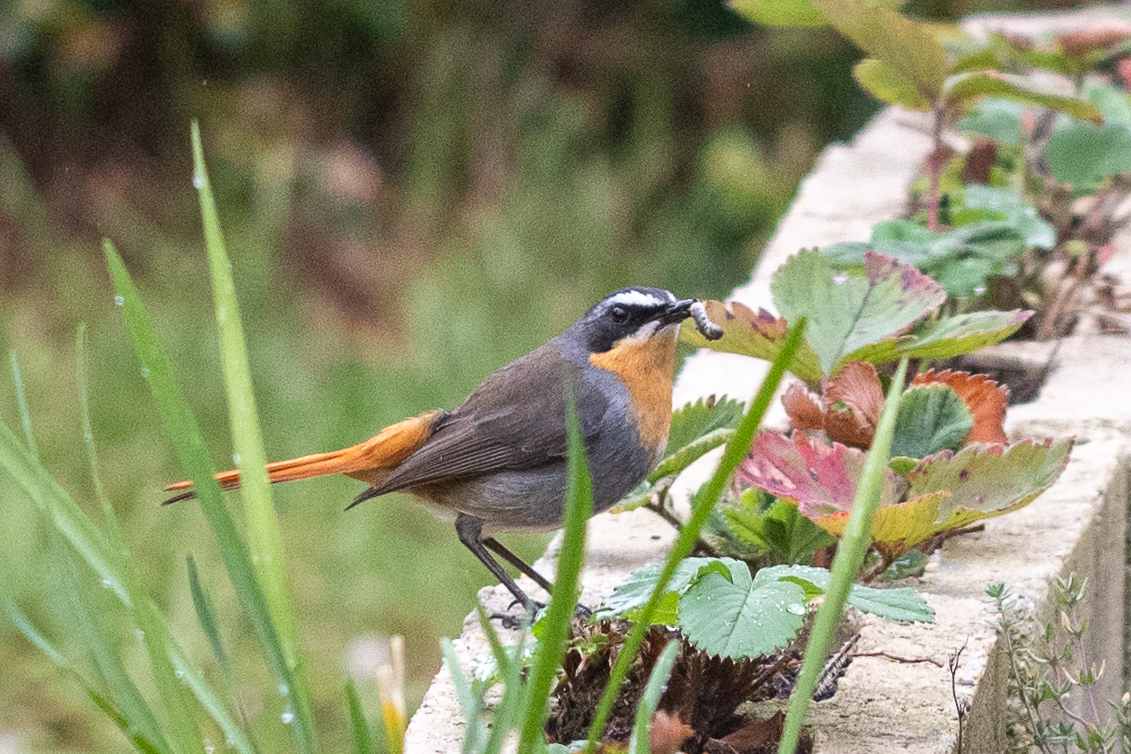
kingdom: Animalia
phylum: Chordata
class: Aves
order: Passeriformes
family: Muscicapidae
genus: Cossypha
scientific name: Cossypha caffra
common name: Cape robin-chat
